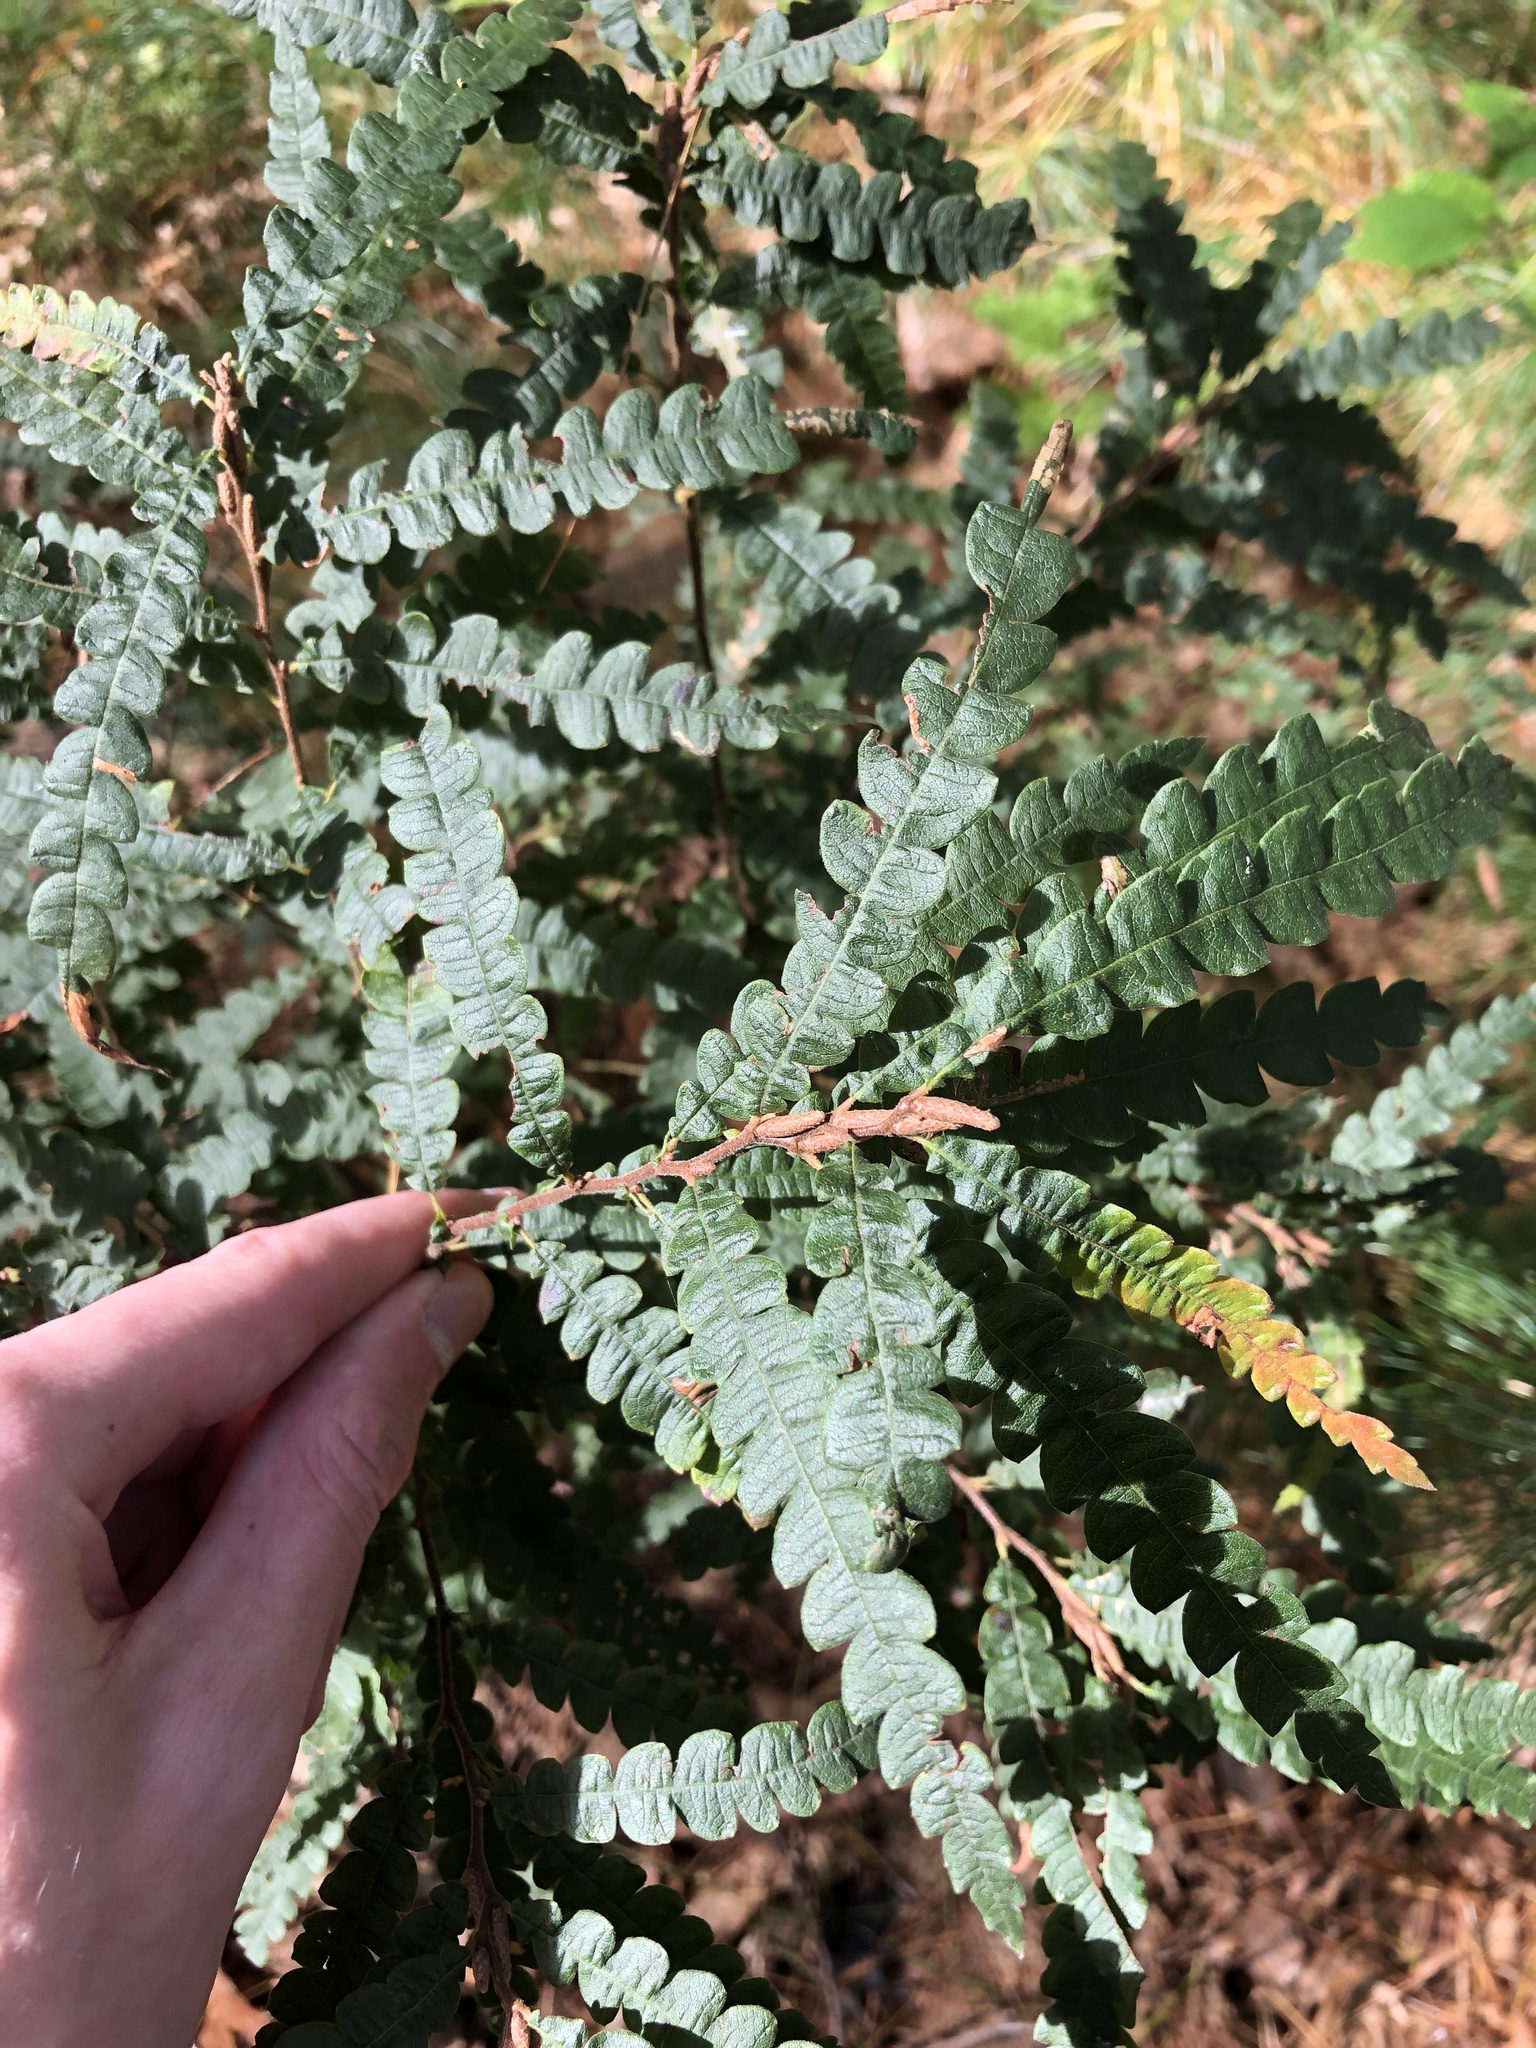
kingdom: Plantae
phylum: Tracheophyta
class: Magnoliopsida
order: Fagales
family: Myricaceae
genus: Comptonia
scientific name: Comptonia peregrina
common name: Sweet-fern
